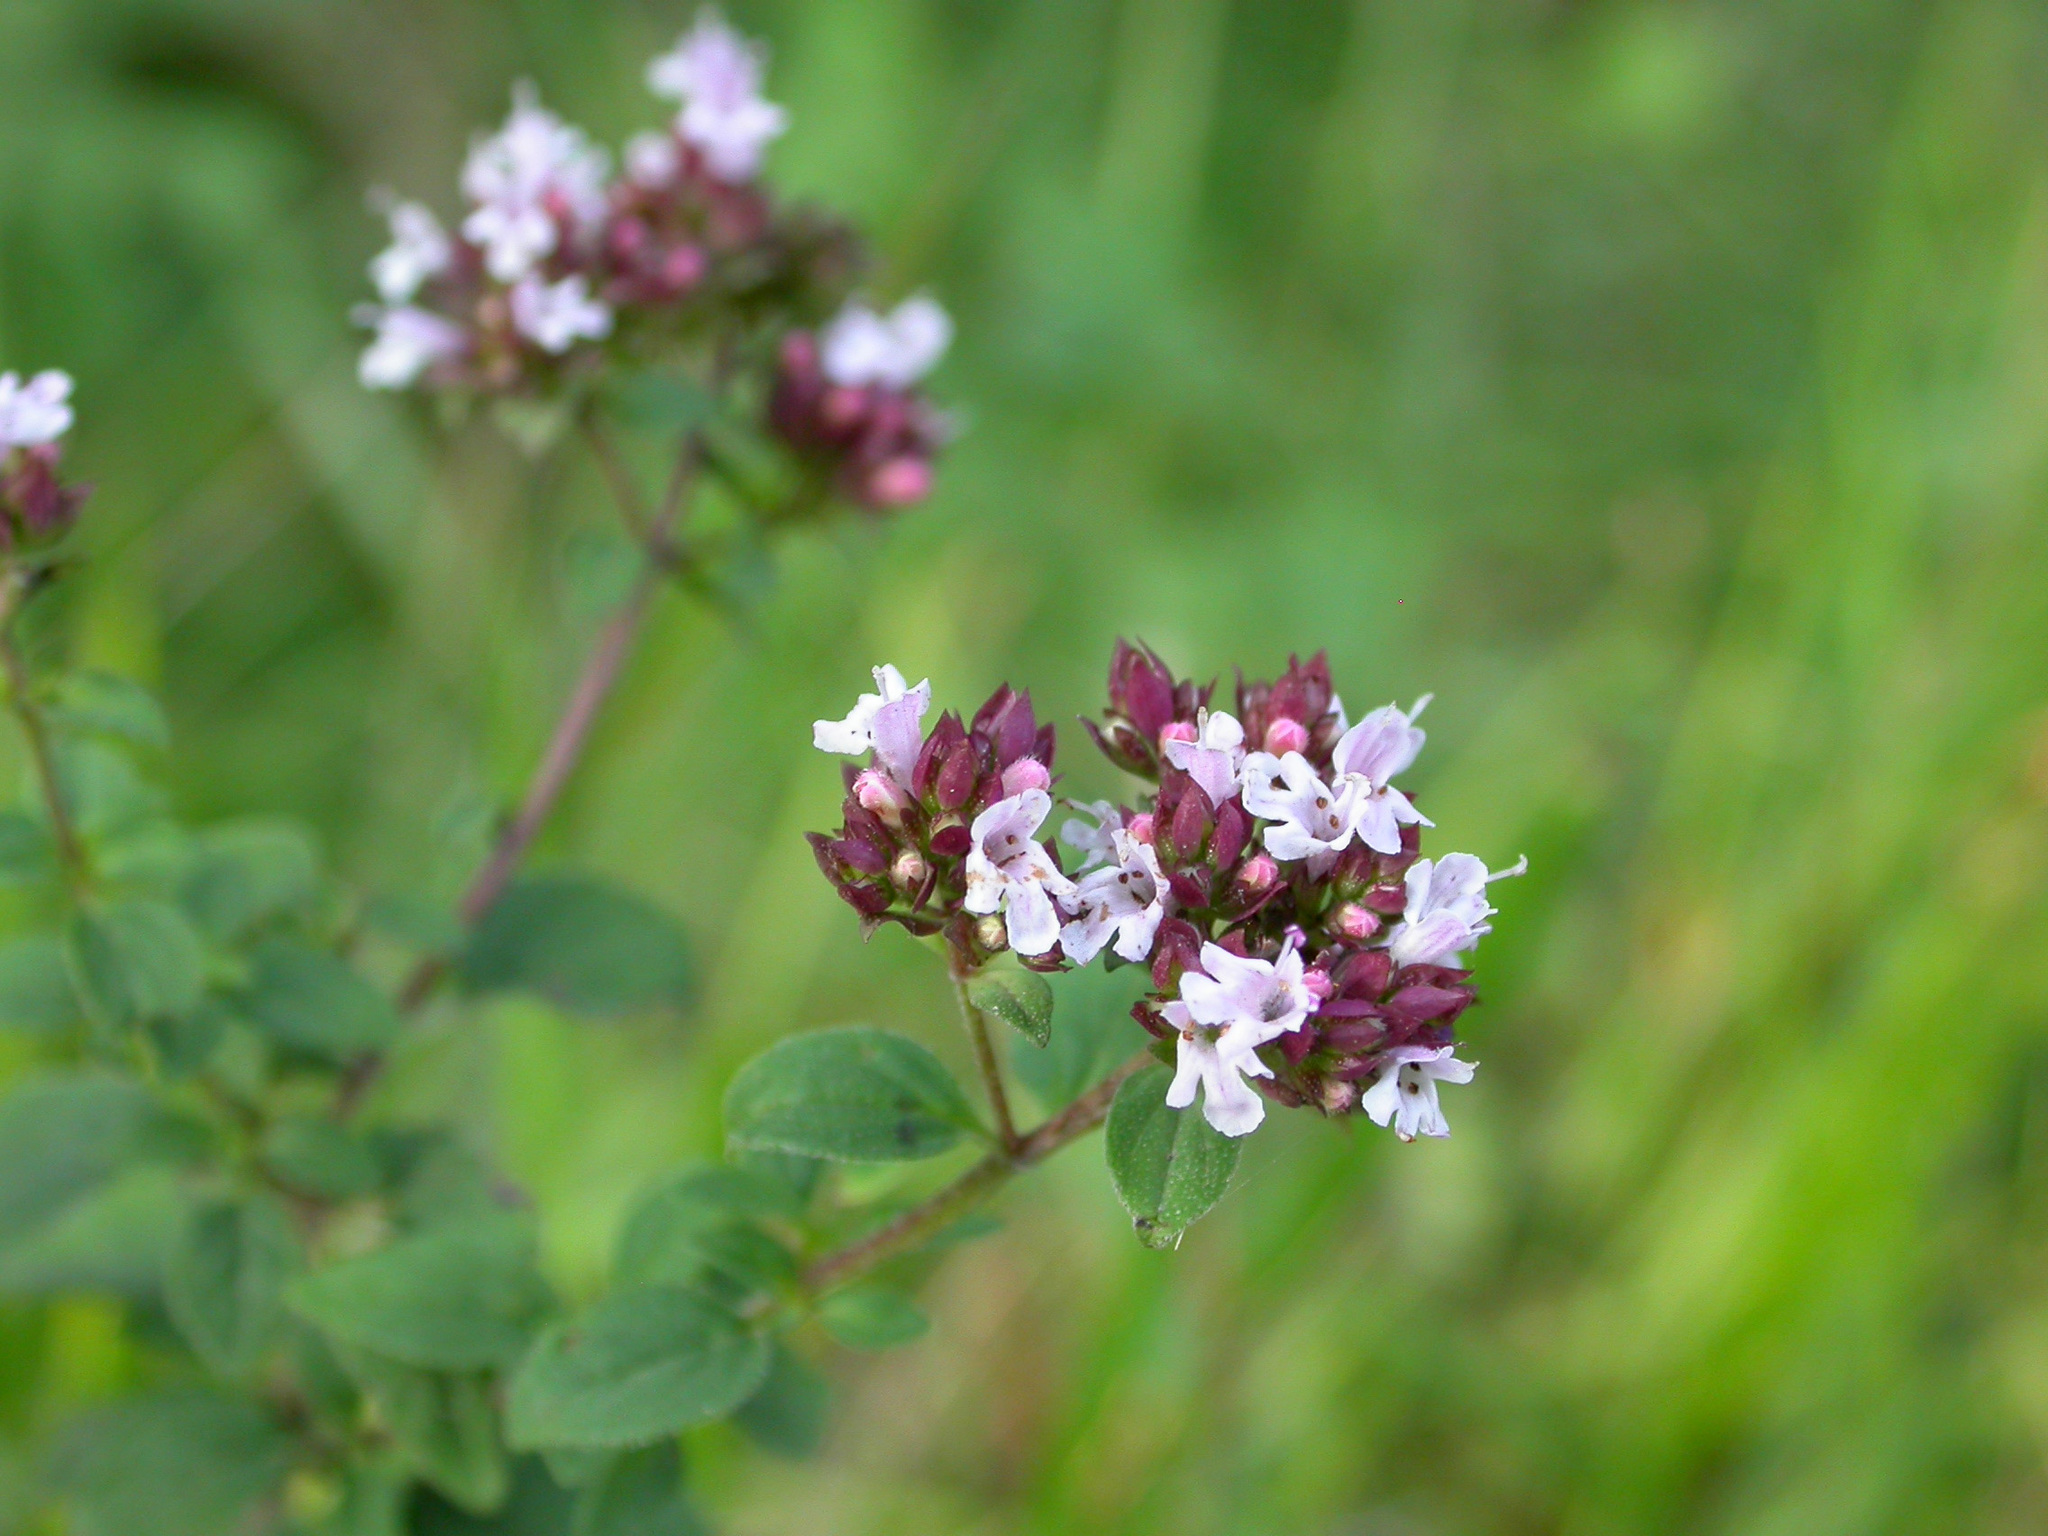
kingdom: Plantae
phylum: Tracheophyta
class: Magnoliopsida
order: Lamiales
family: Lamiaceae
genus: Origanum
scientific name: Origanum vulgare
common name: Wild marjoram
